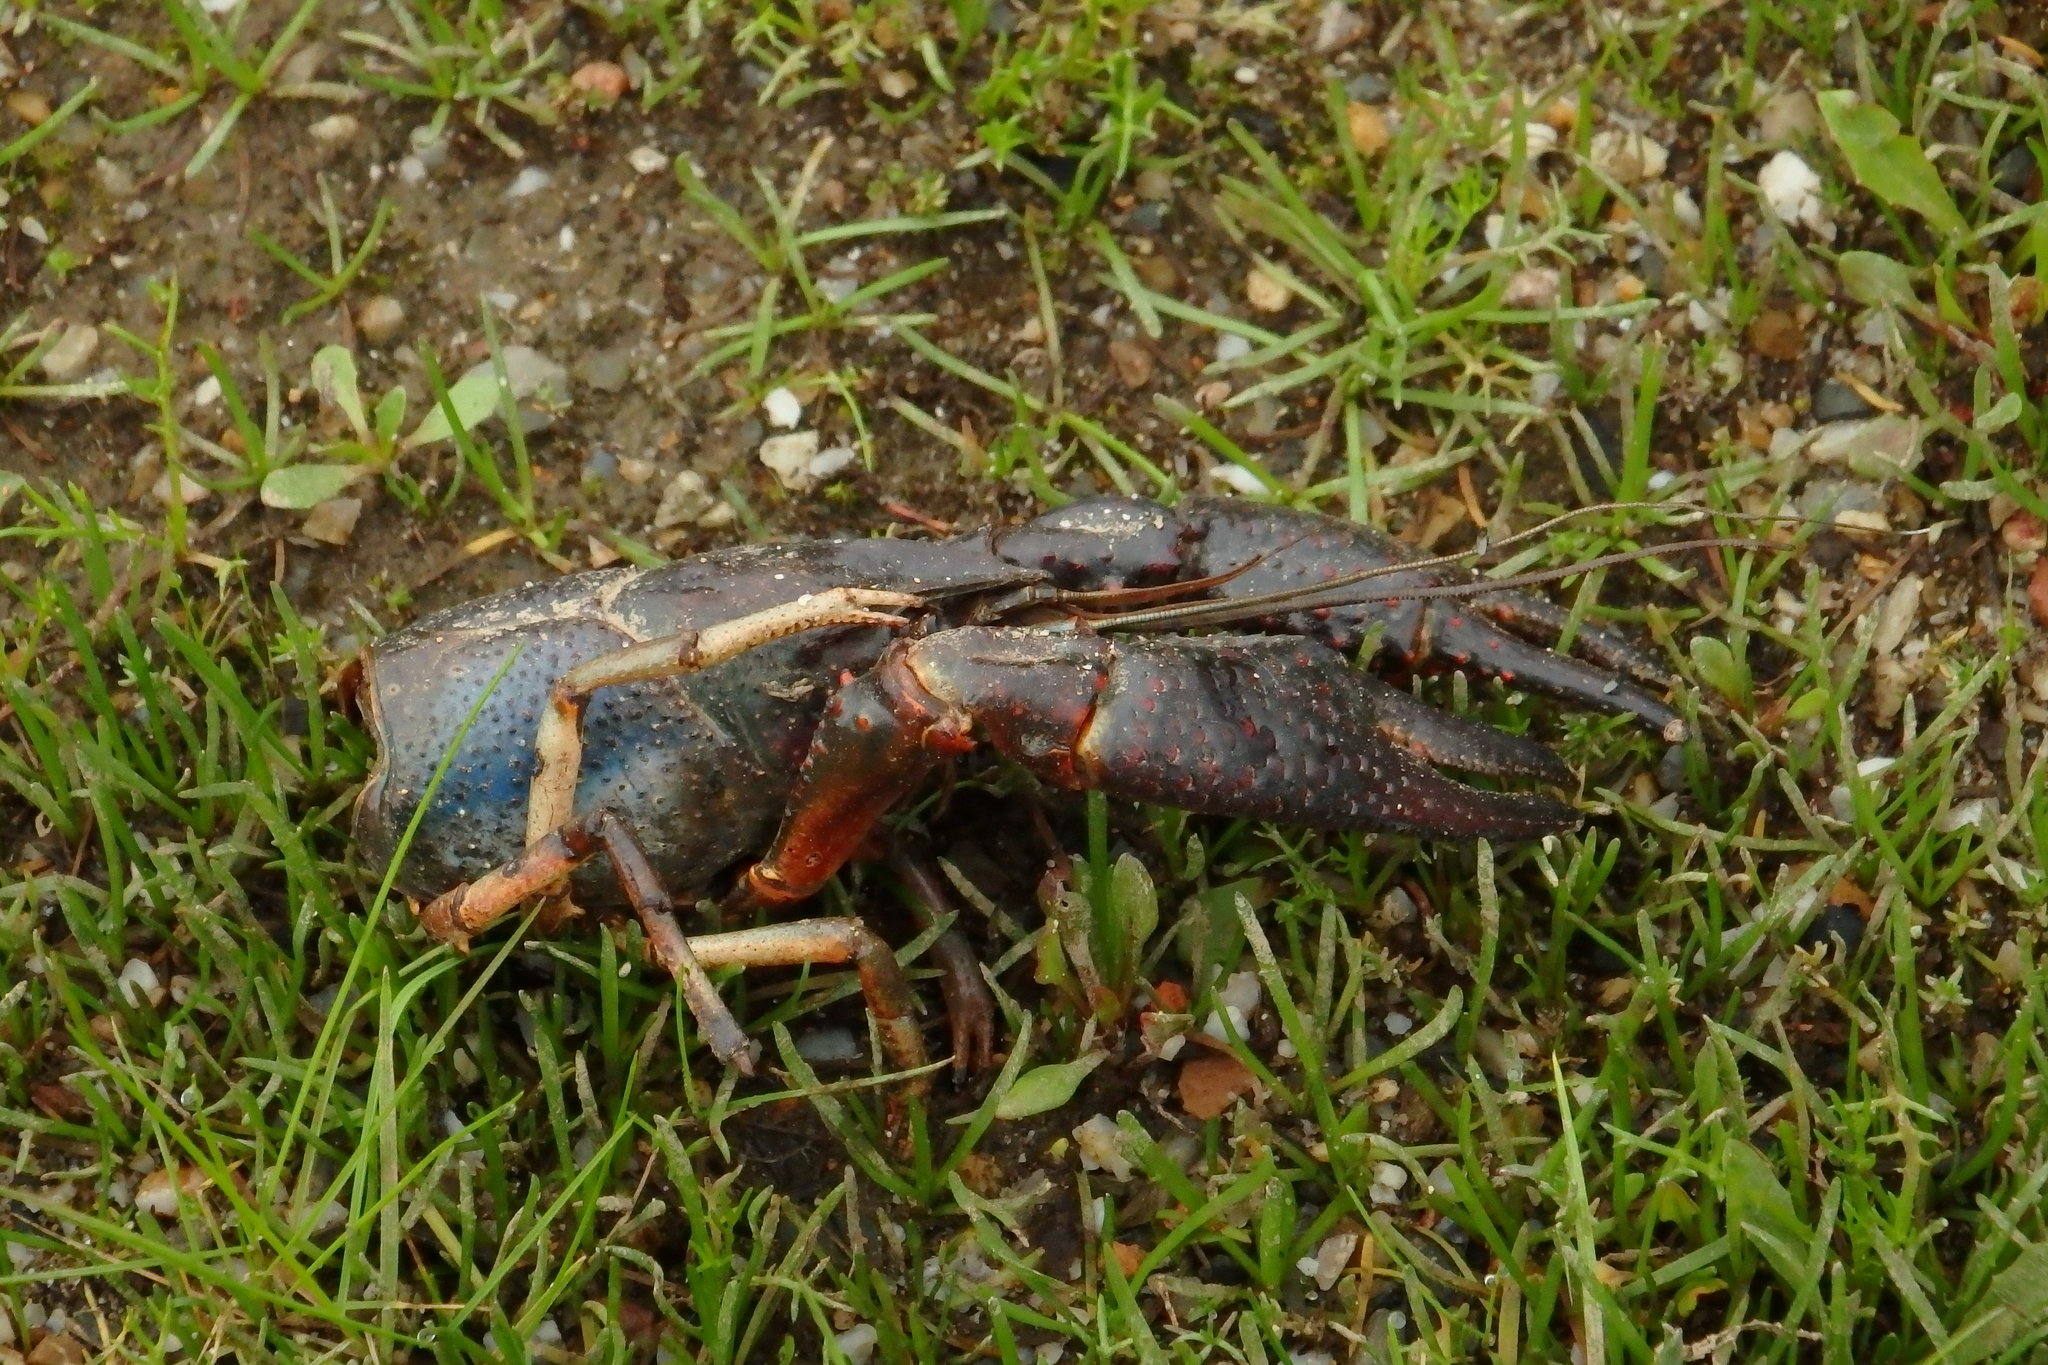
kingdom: Animalia
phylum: Arthropoda
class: Malacostraca
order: Decapoda
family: Cambaridae
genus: Procambarus
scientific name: Procambarus clarkii
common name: Red swamp crayfish
